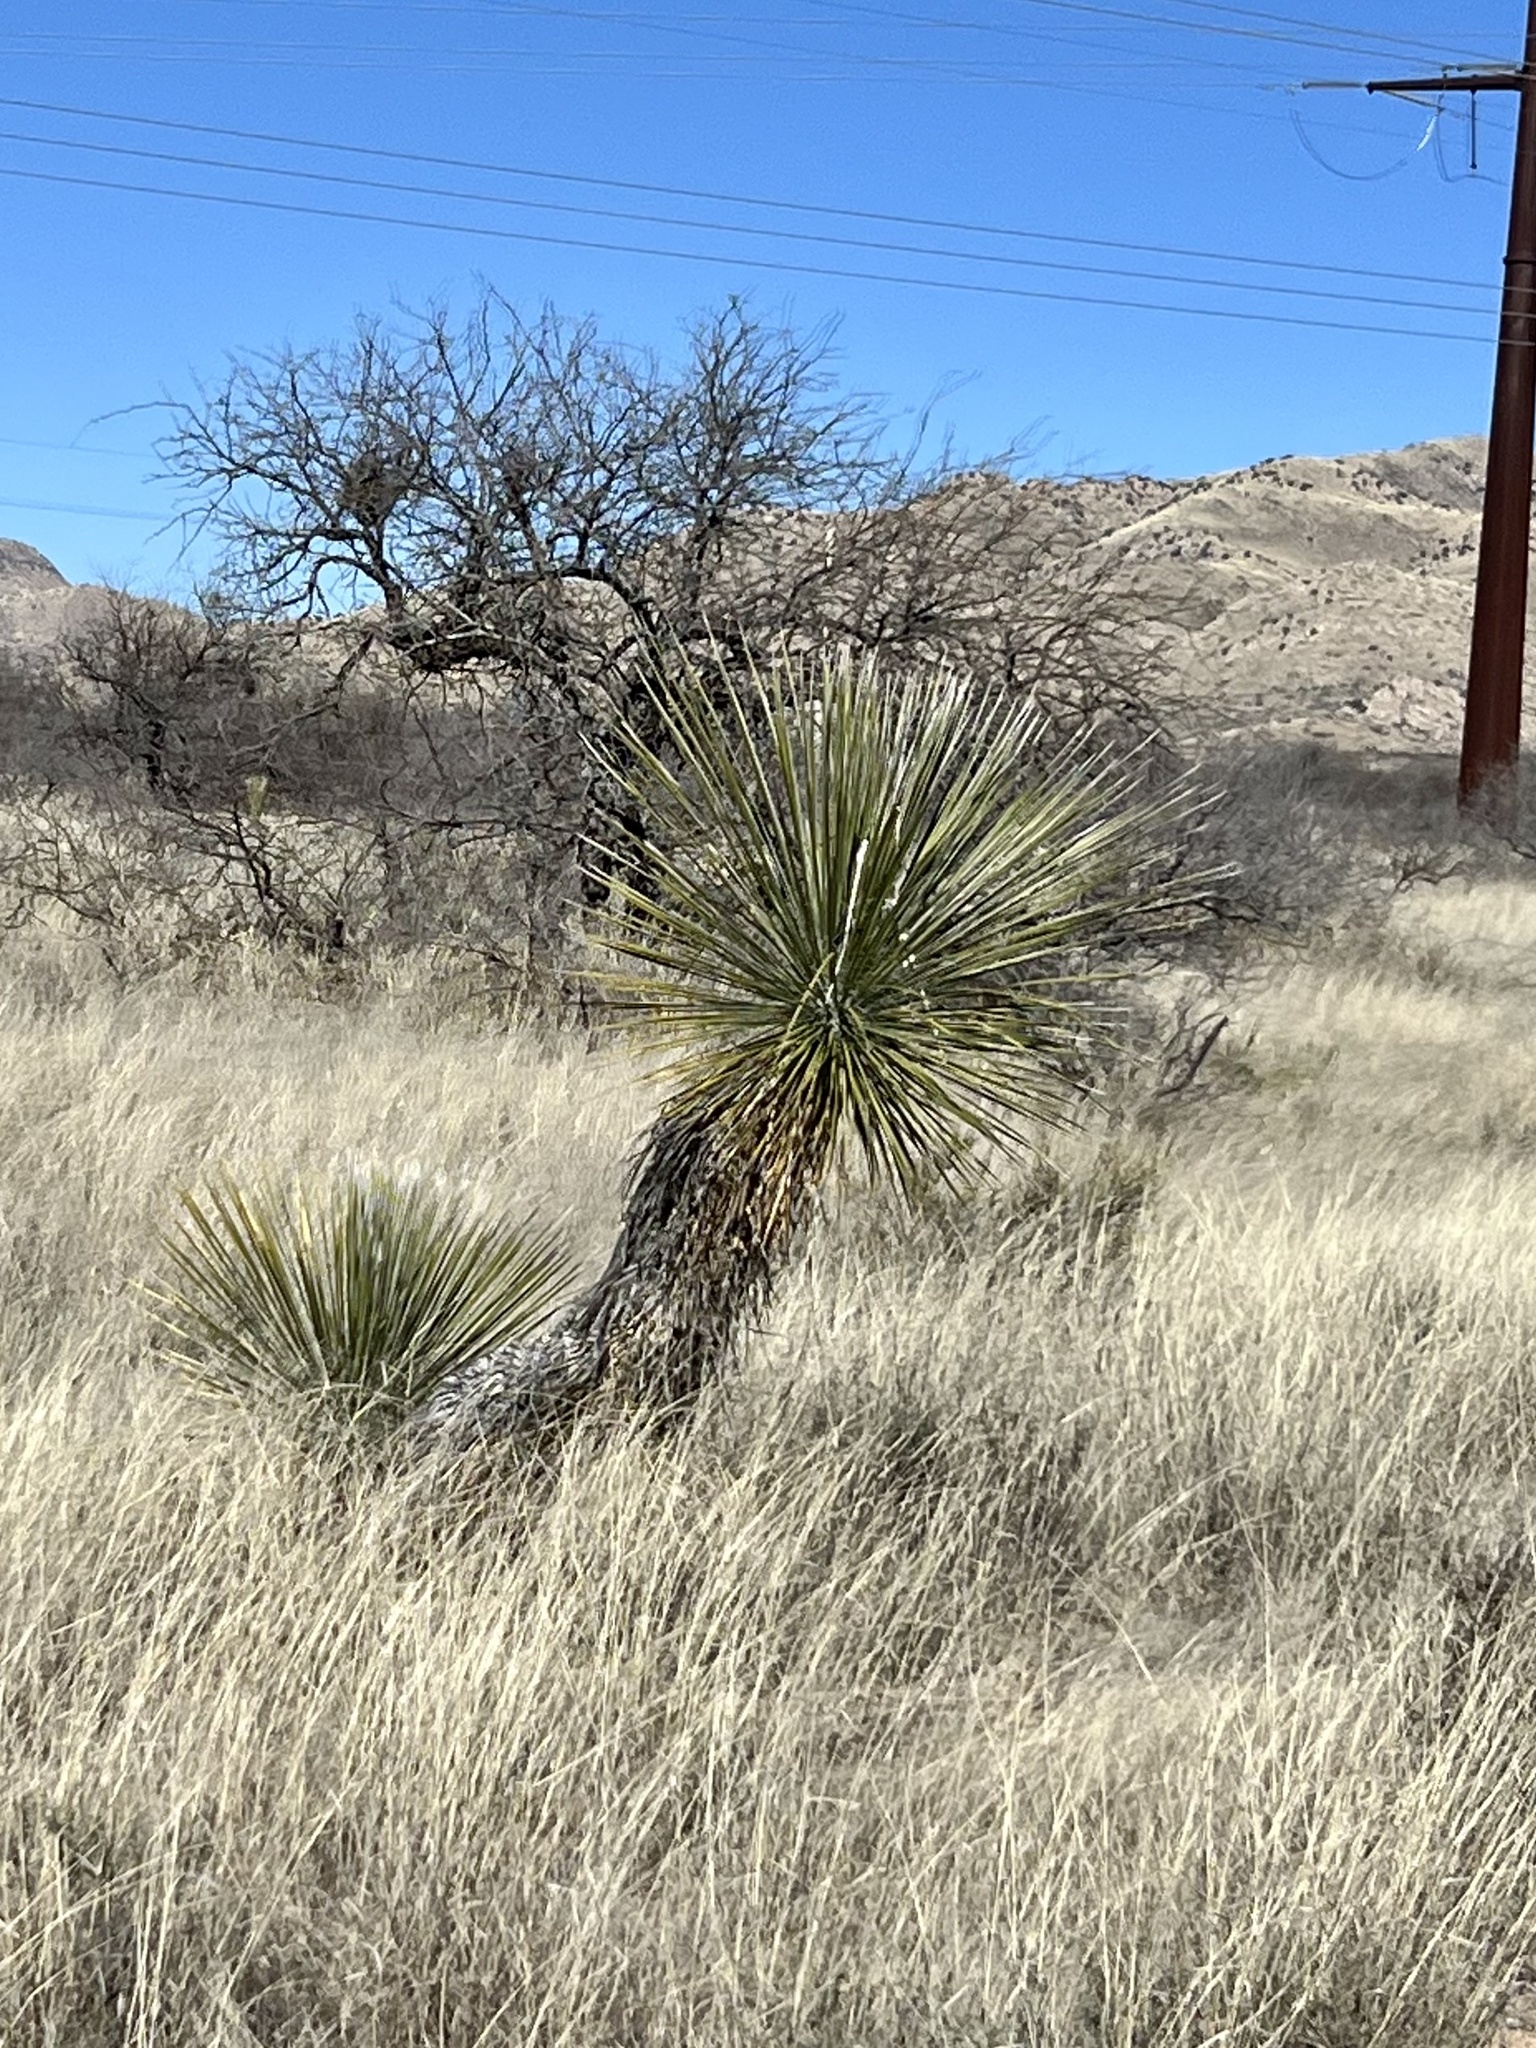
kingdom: Plantae
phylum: Tracheophyta
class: Liliopsida
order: Asparagales
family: Asparagaceae
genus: Yucca
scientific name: Yucca elata
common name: Palmella
